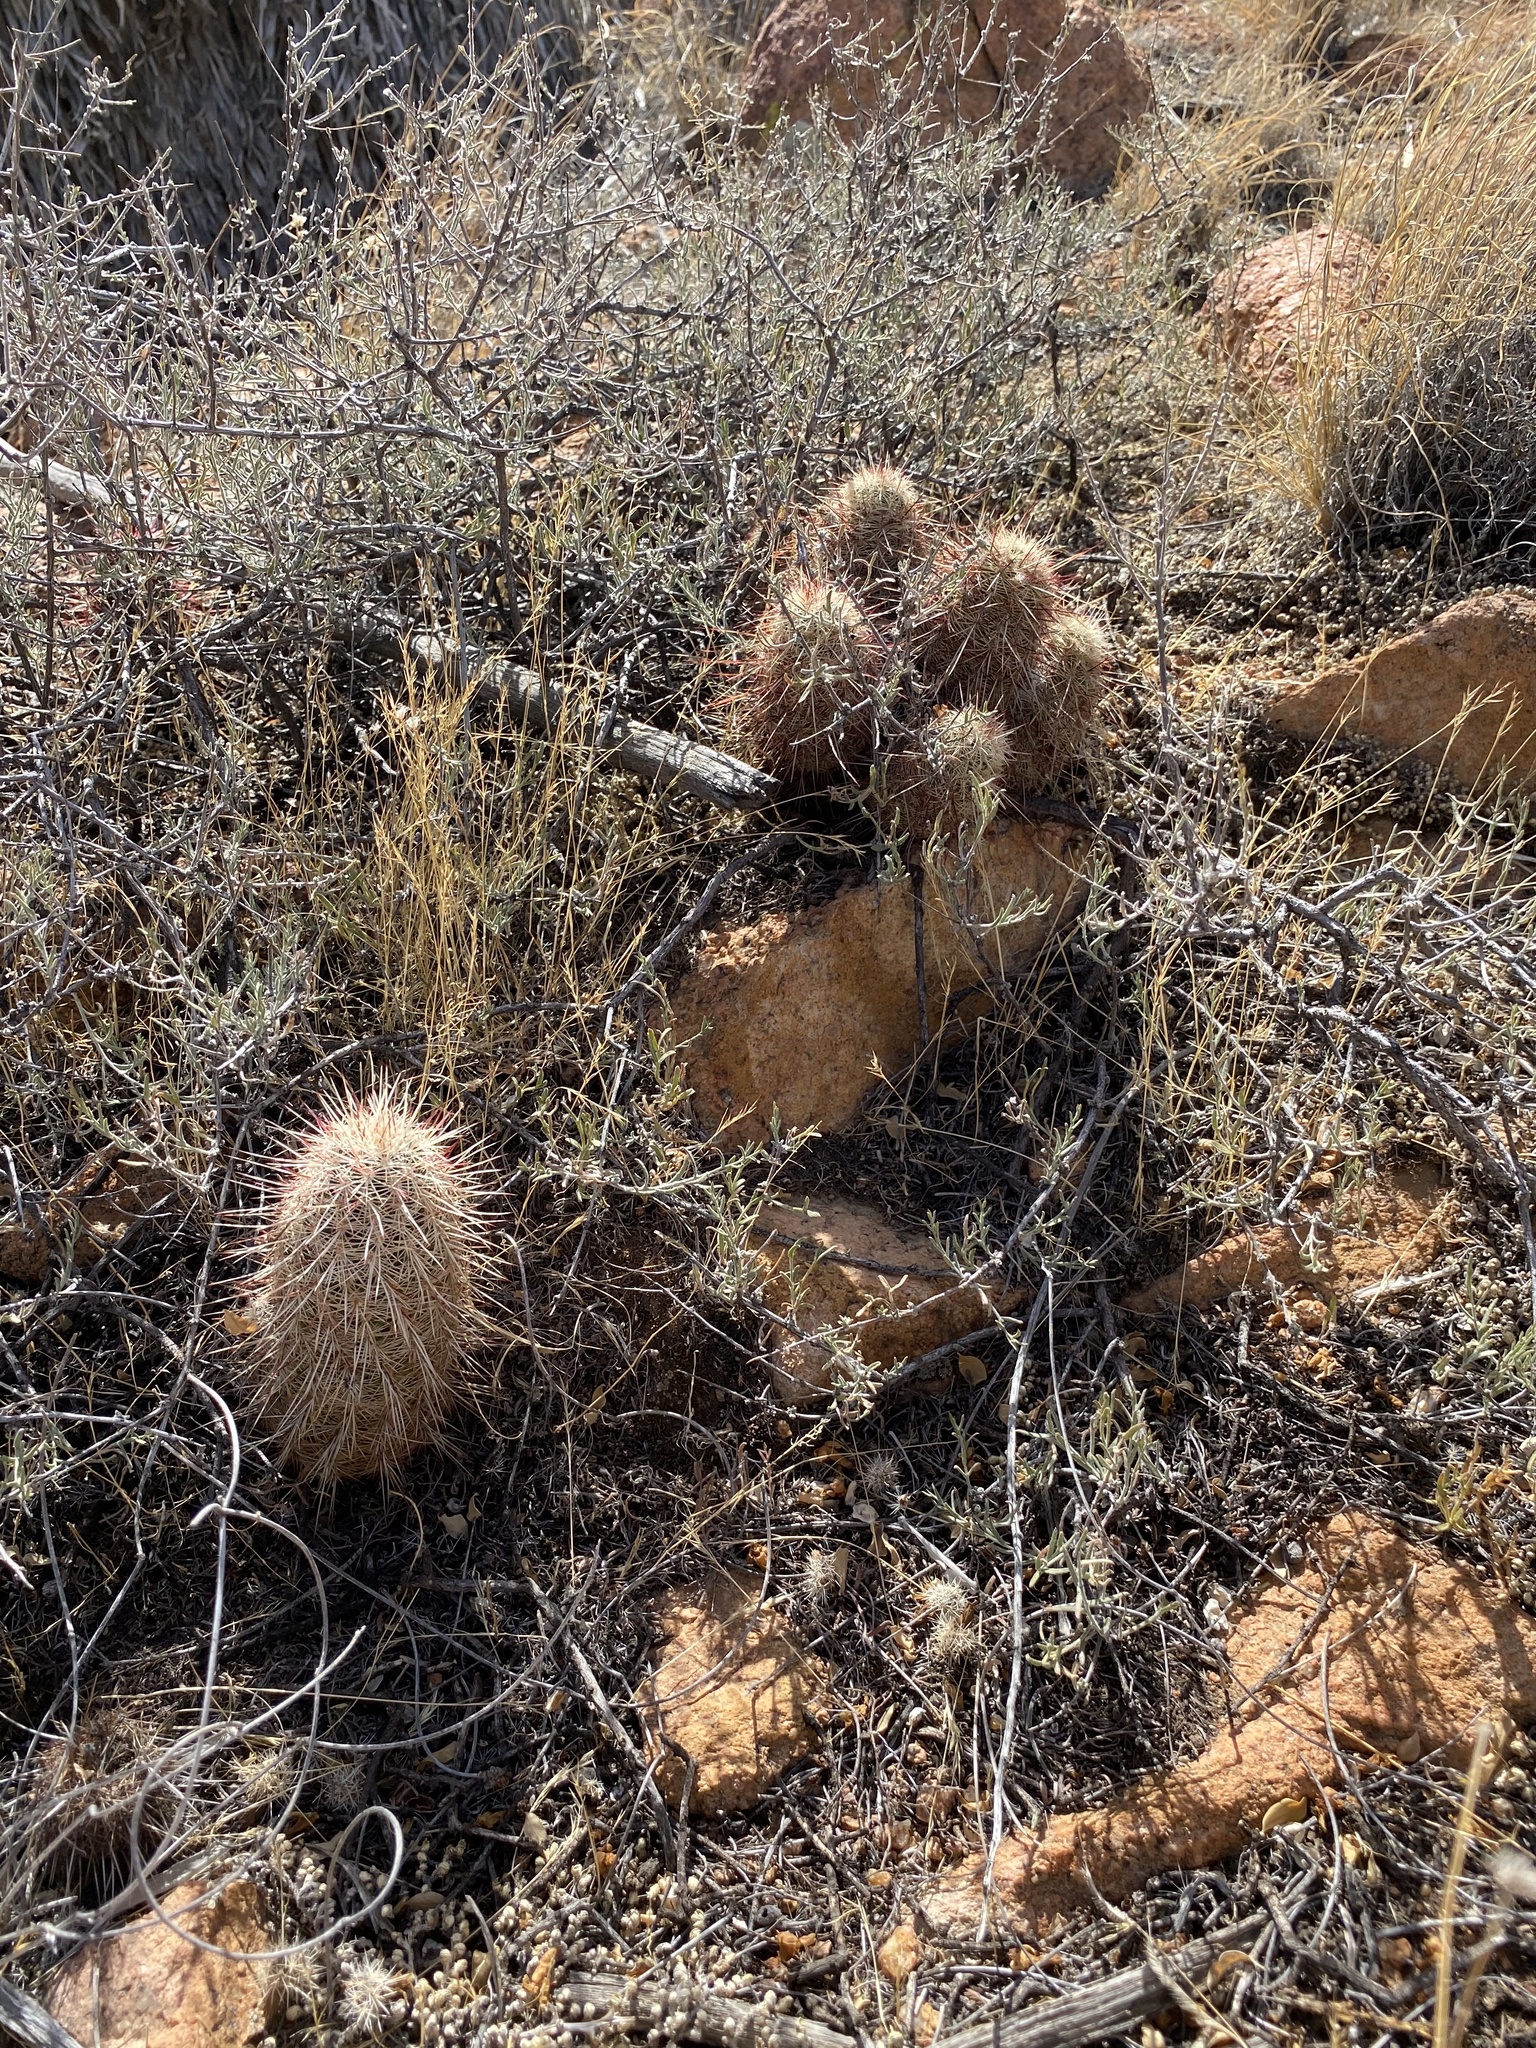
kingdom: Plantae
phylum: Tracheophyta
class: Magnoliopsida
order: Caryophyllales
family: Cactaceae
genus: Echinocereus
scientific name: Echinocereus viridiflorus
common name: Nylon hedgehog cactus
